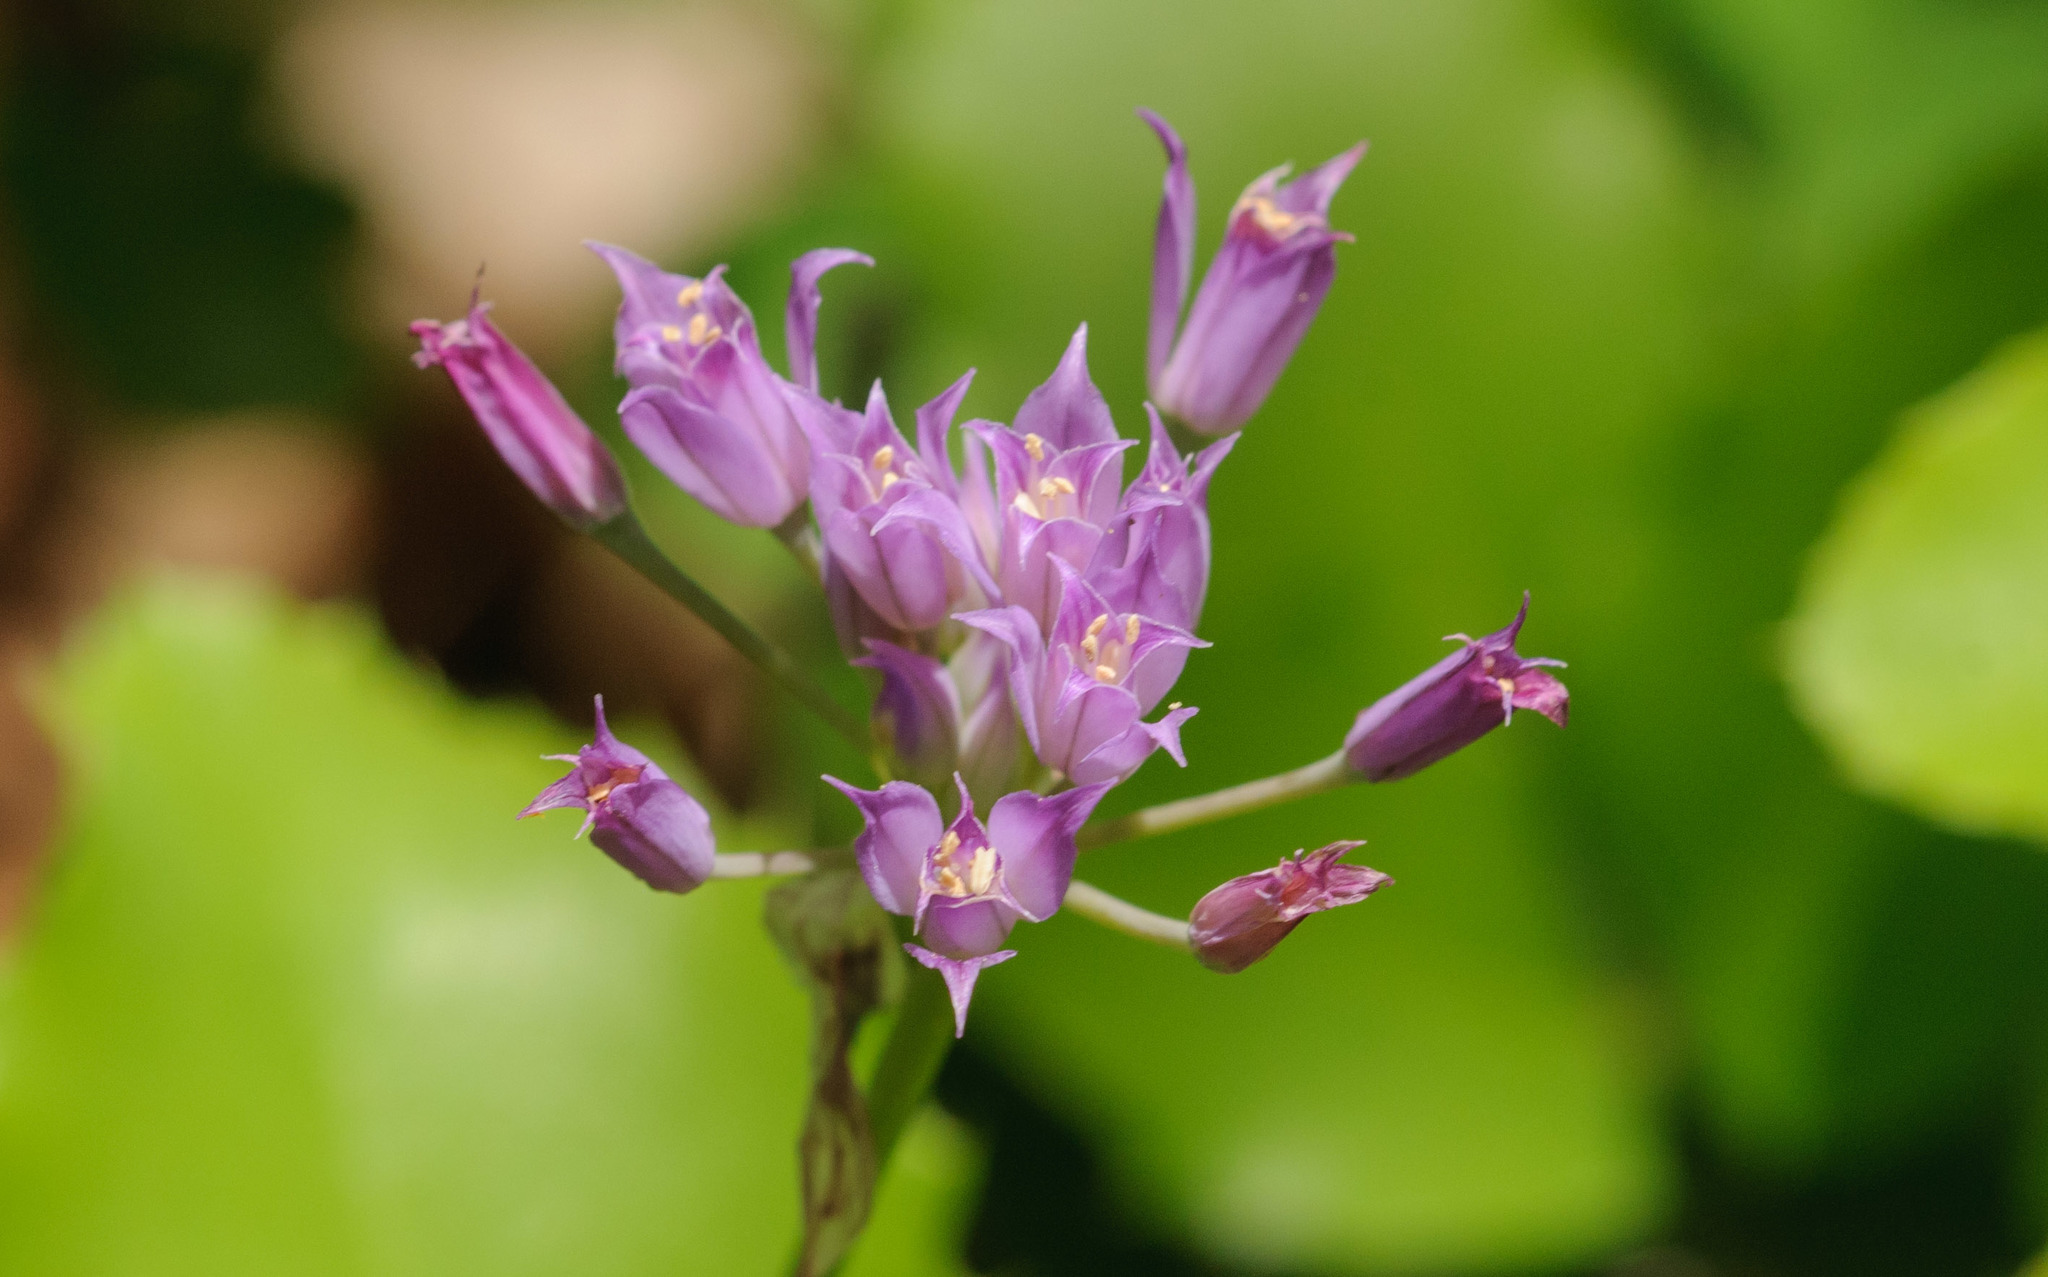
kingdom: Plantae
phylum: Tracheophyta
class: Liliopsida
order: Asparagales
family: Amaryllidaceae
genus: Allium
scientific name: Allium acuminatum
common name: Hooker's onion
